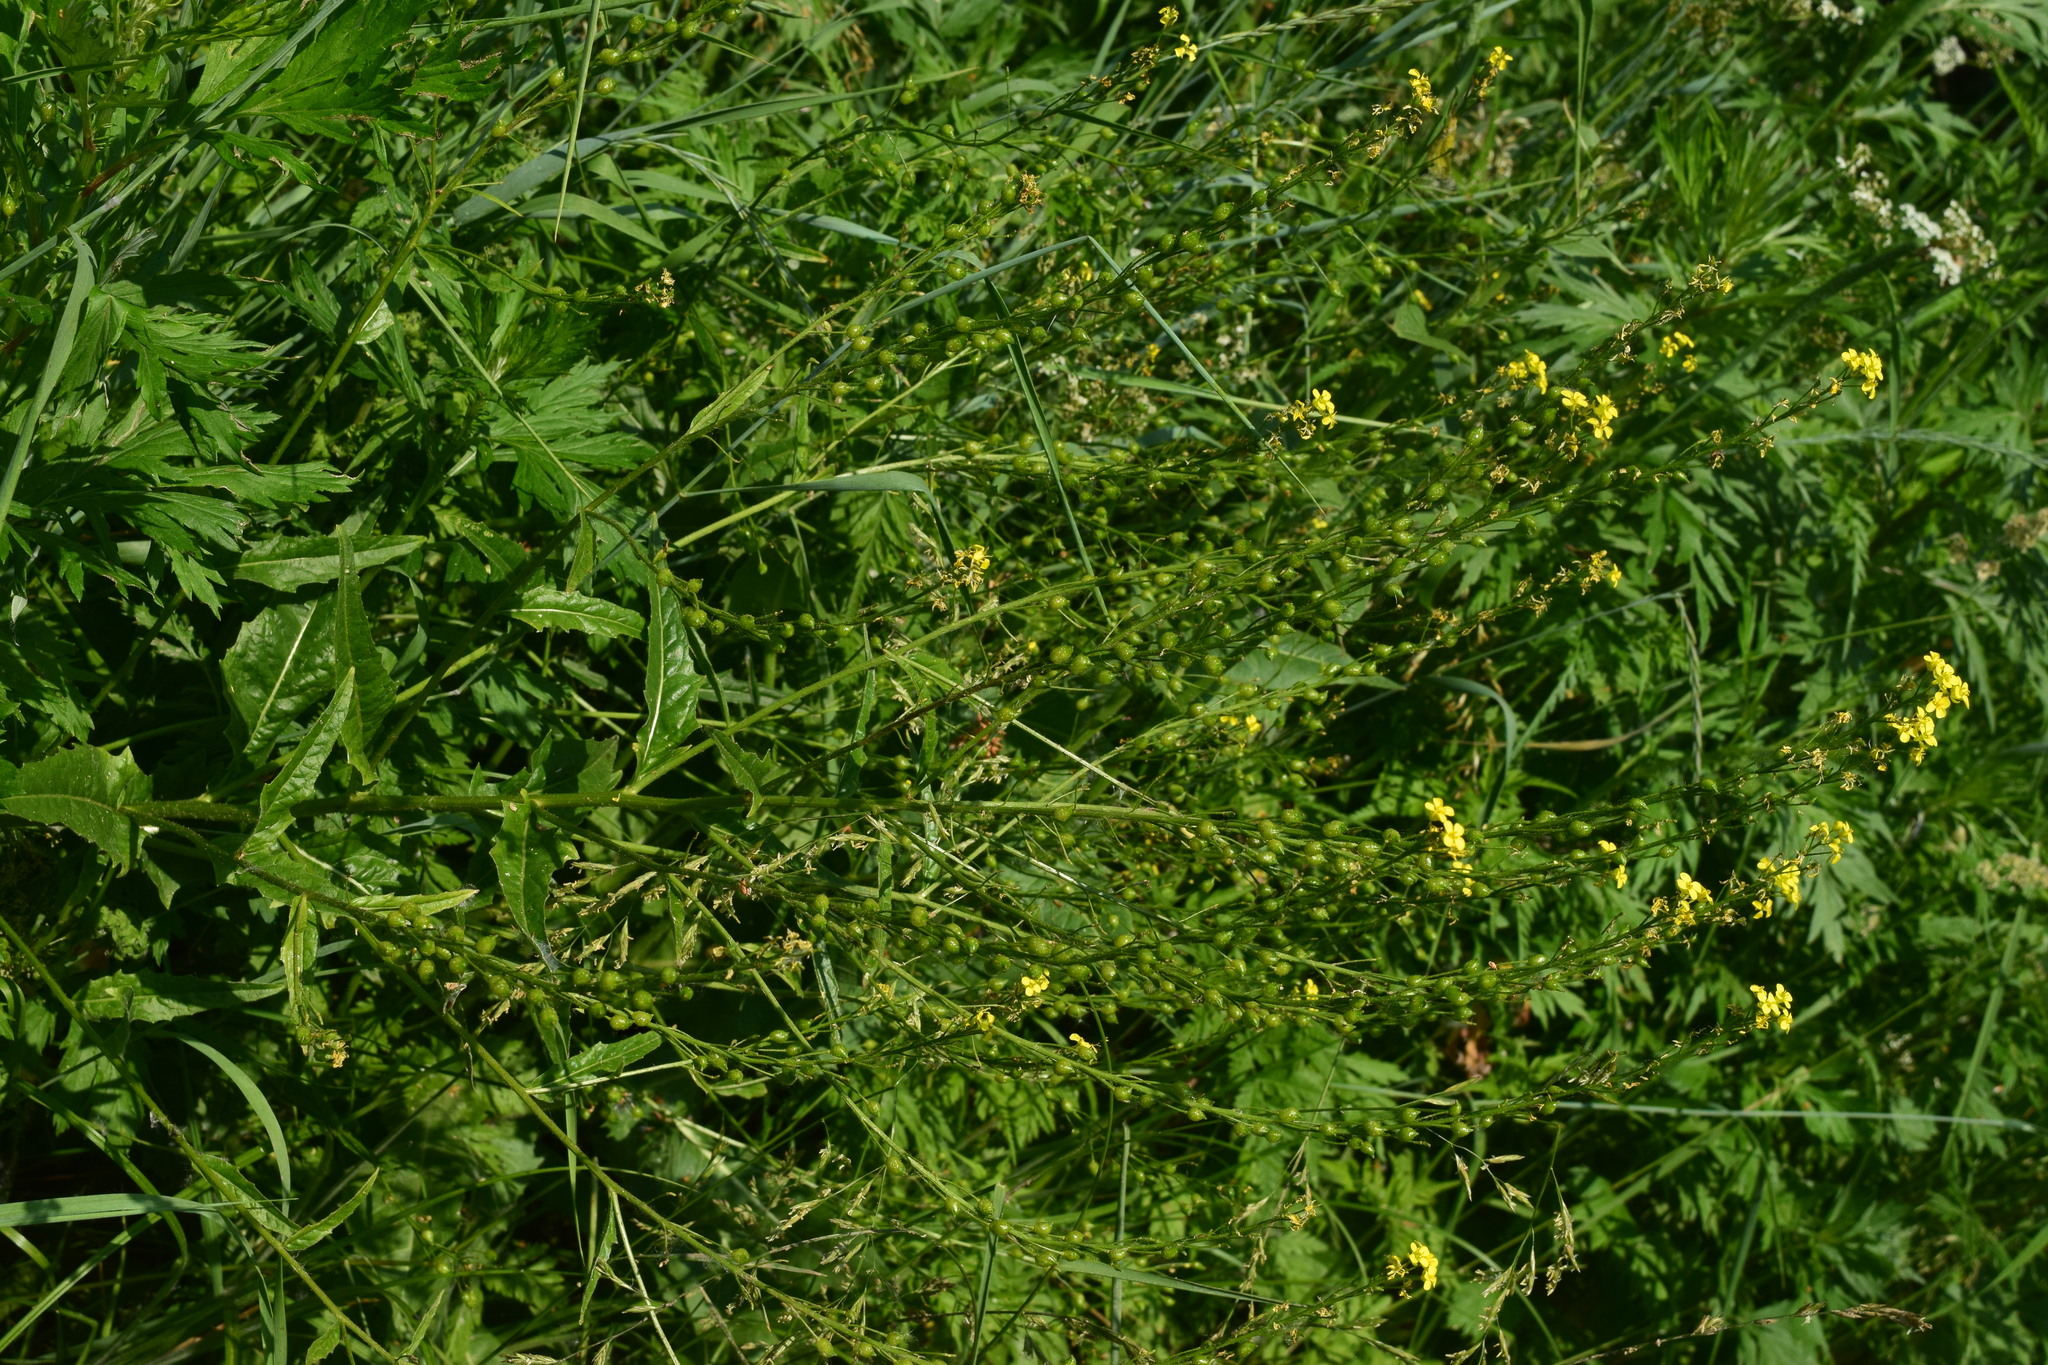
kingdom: Plantae
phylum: Tracheophyta
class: Magnoliopsida
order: Brassicales
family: Brassicaceae
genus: Bunias
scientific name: Bunias orientalis
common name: Warty-cabbage
